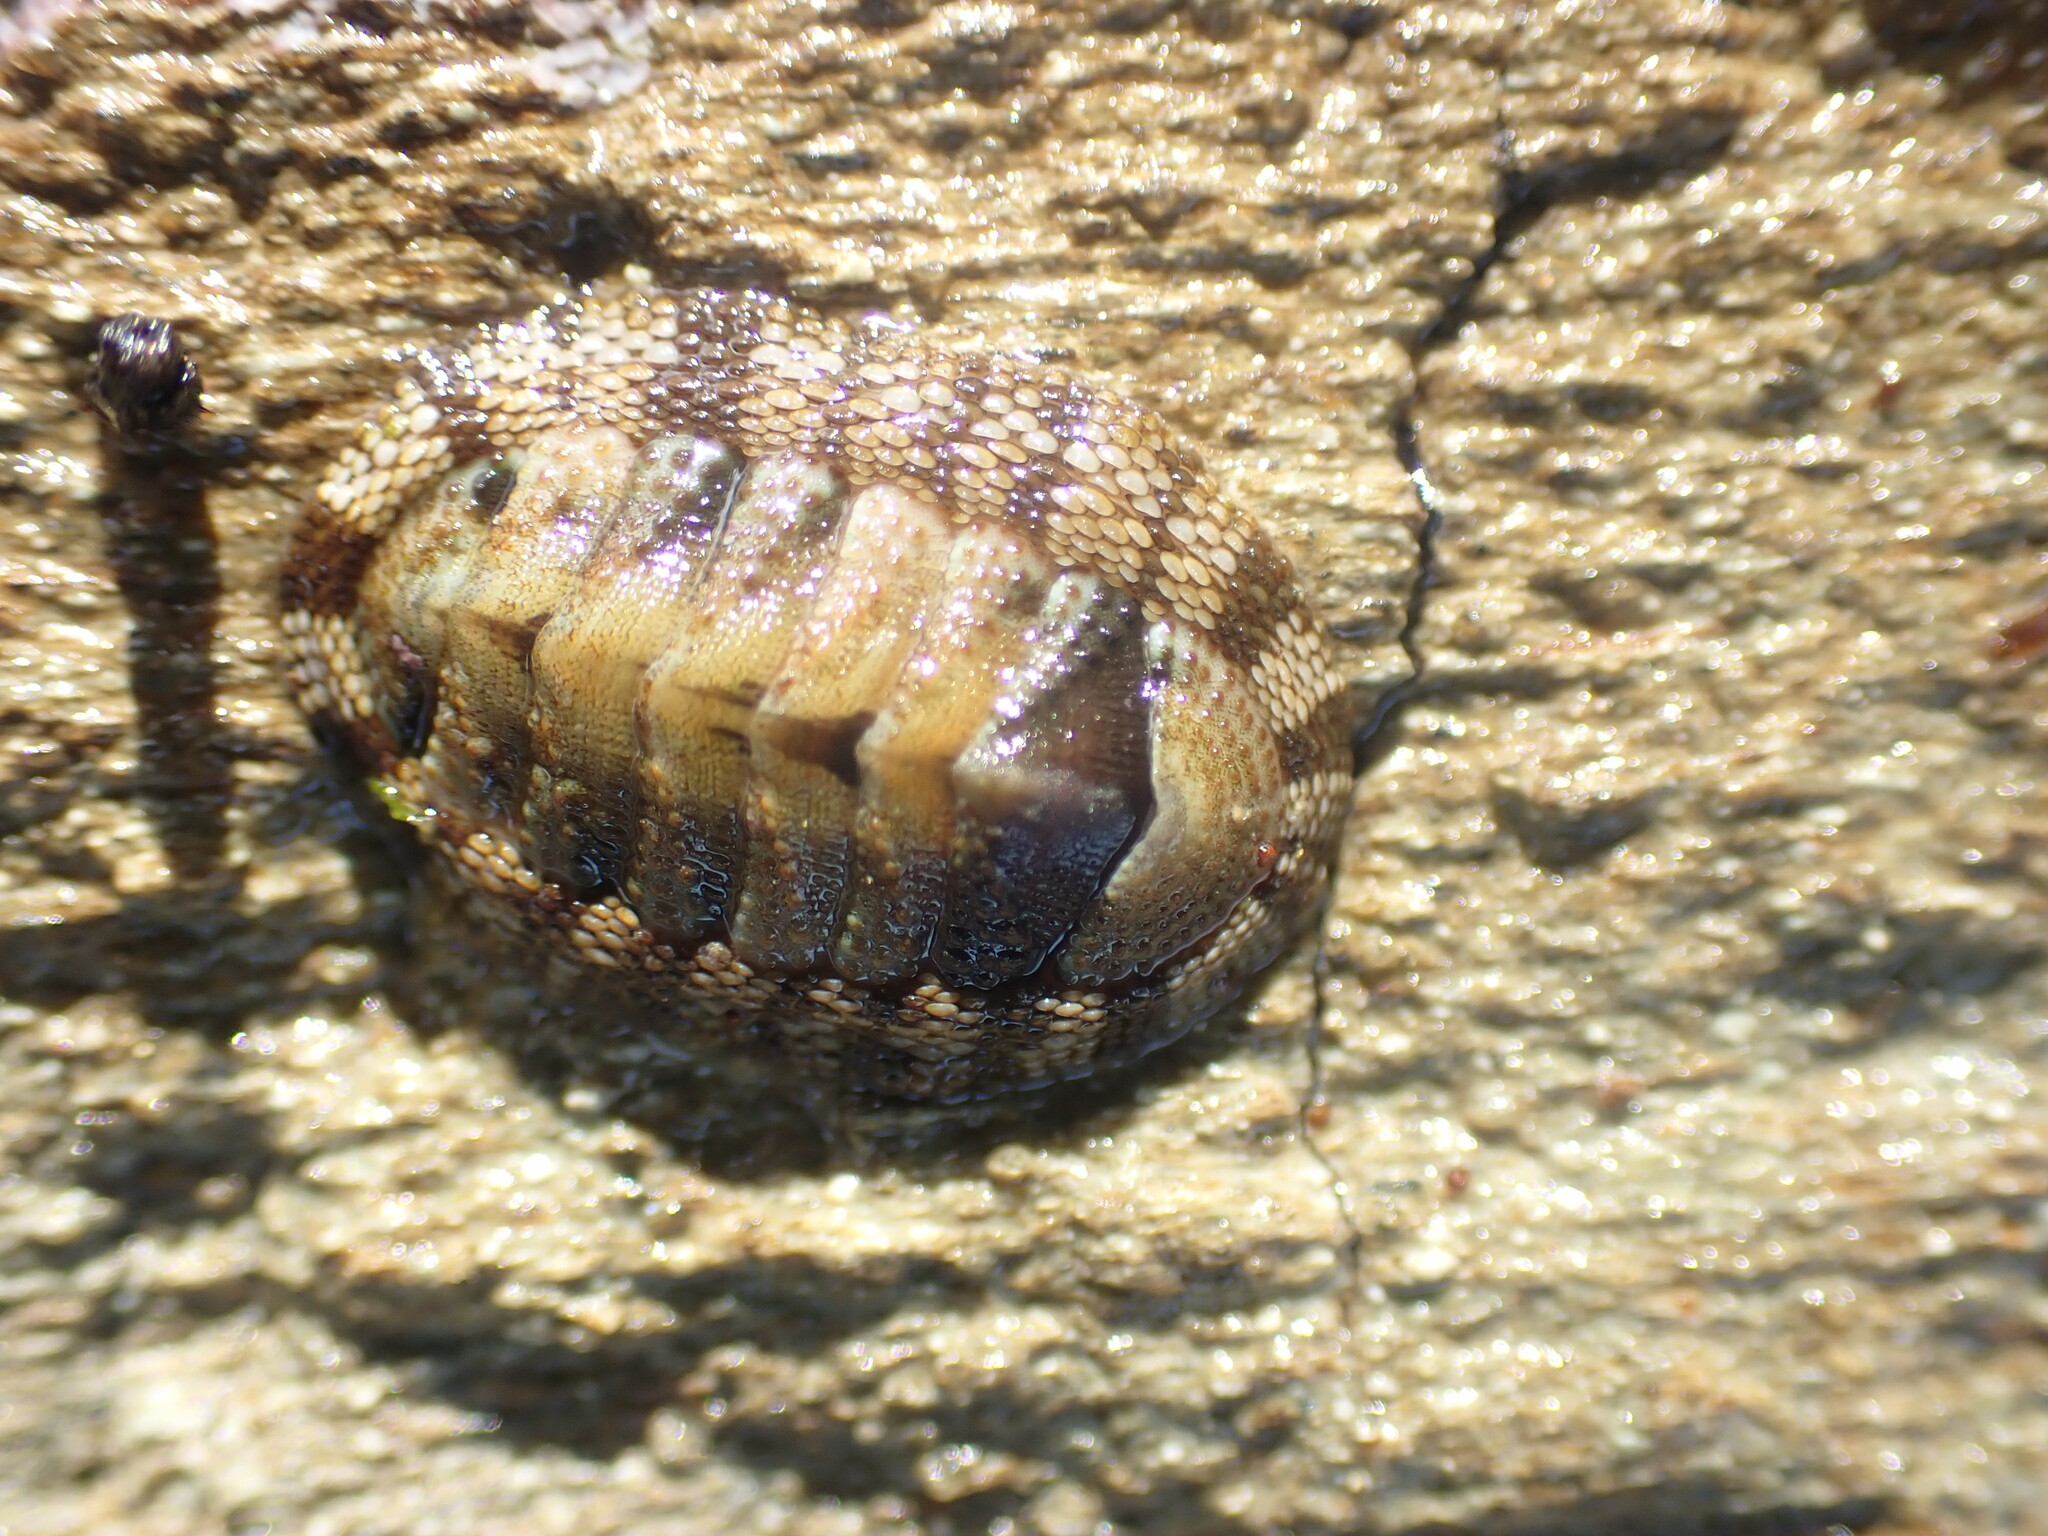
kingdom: Animalia
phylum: Mollusca
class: Polyplacophora
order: Chitonida
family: Chitonidae
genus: Sypharochiton
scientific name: Sypharochiton pelliserpentis
